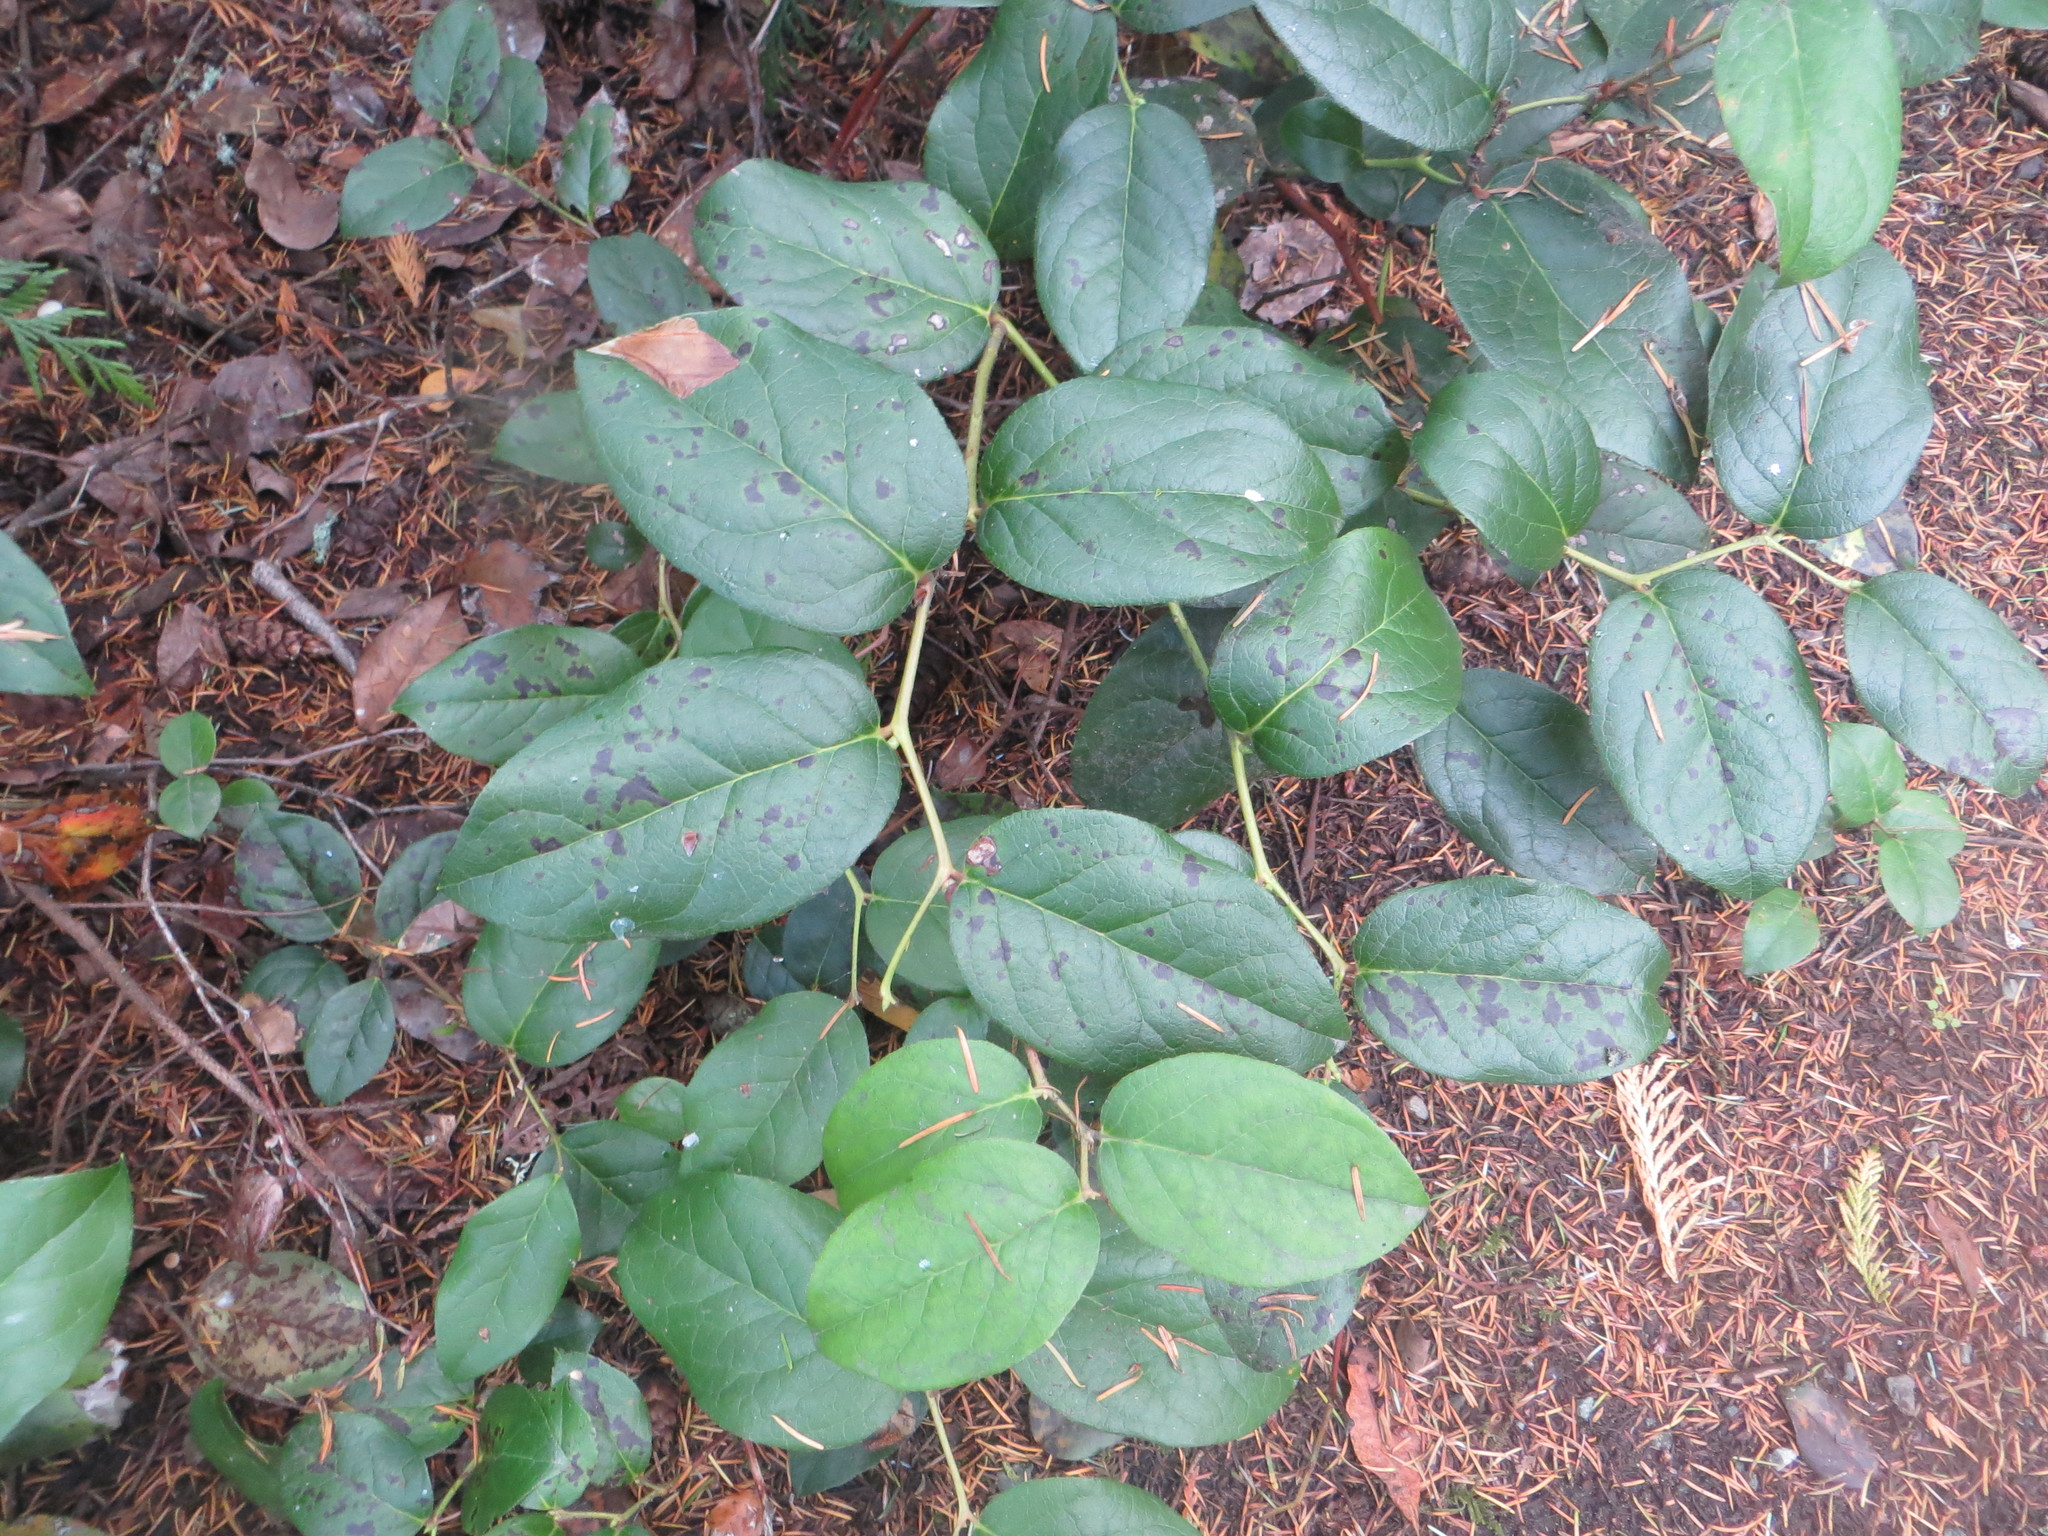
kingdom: Plantae
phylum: Tracheophyta
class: Magnoliopsida
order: Ericales
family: Ericaceae
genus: Gaultheria
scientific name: Gaultheria shallon
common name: Shallon
